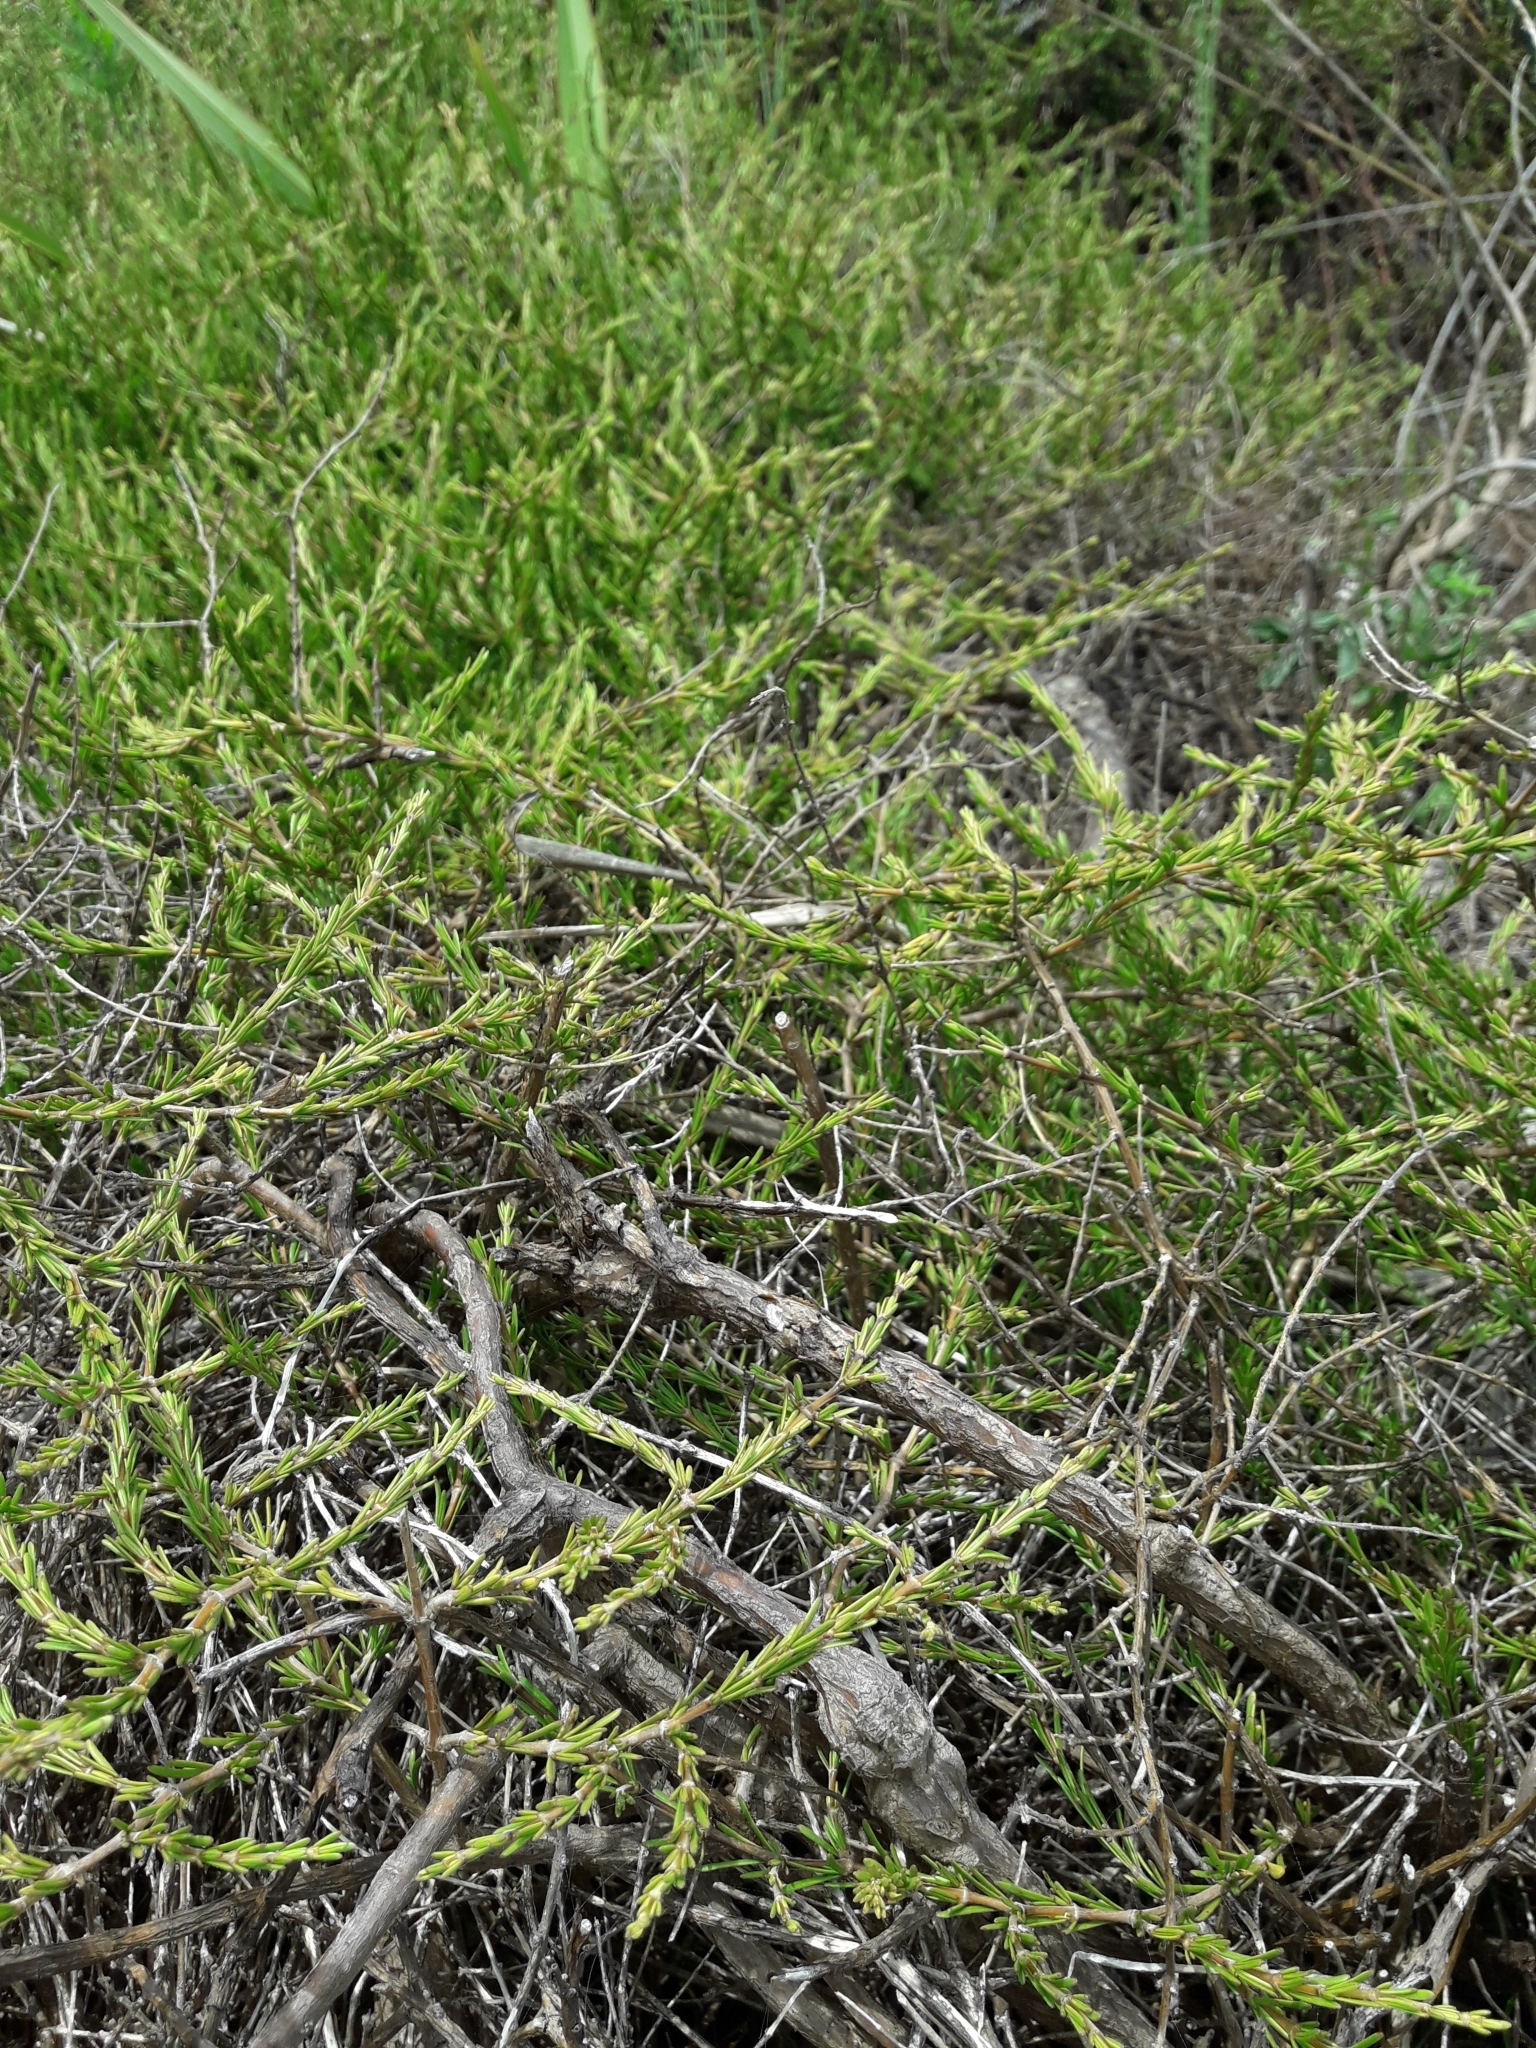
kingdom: Plantae
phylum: Tracheophyta
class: Magnoliopsida
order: Gentianales
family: Rubiaceae
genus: Coprosma
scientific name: Coprosma acerosa
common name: Sand coprosma
